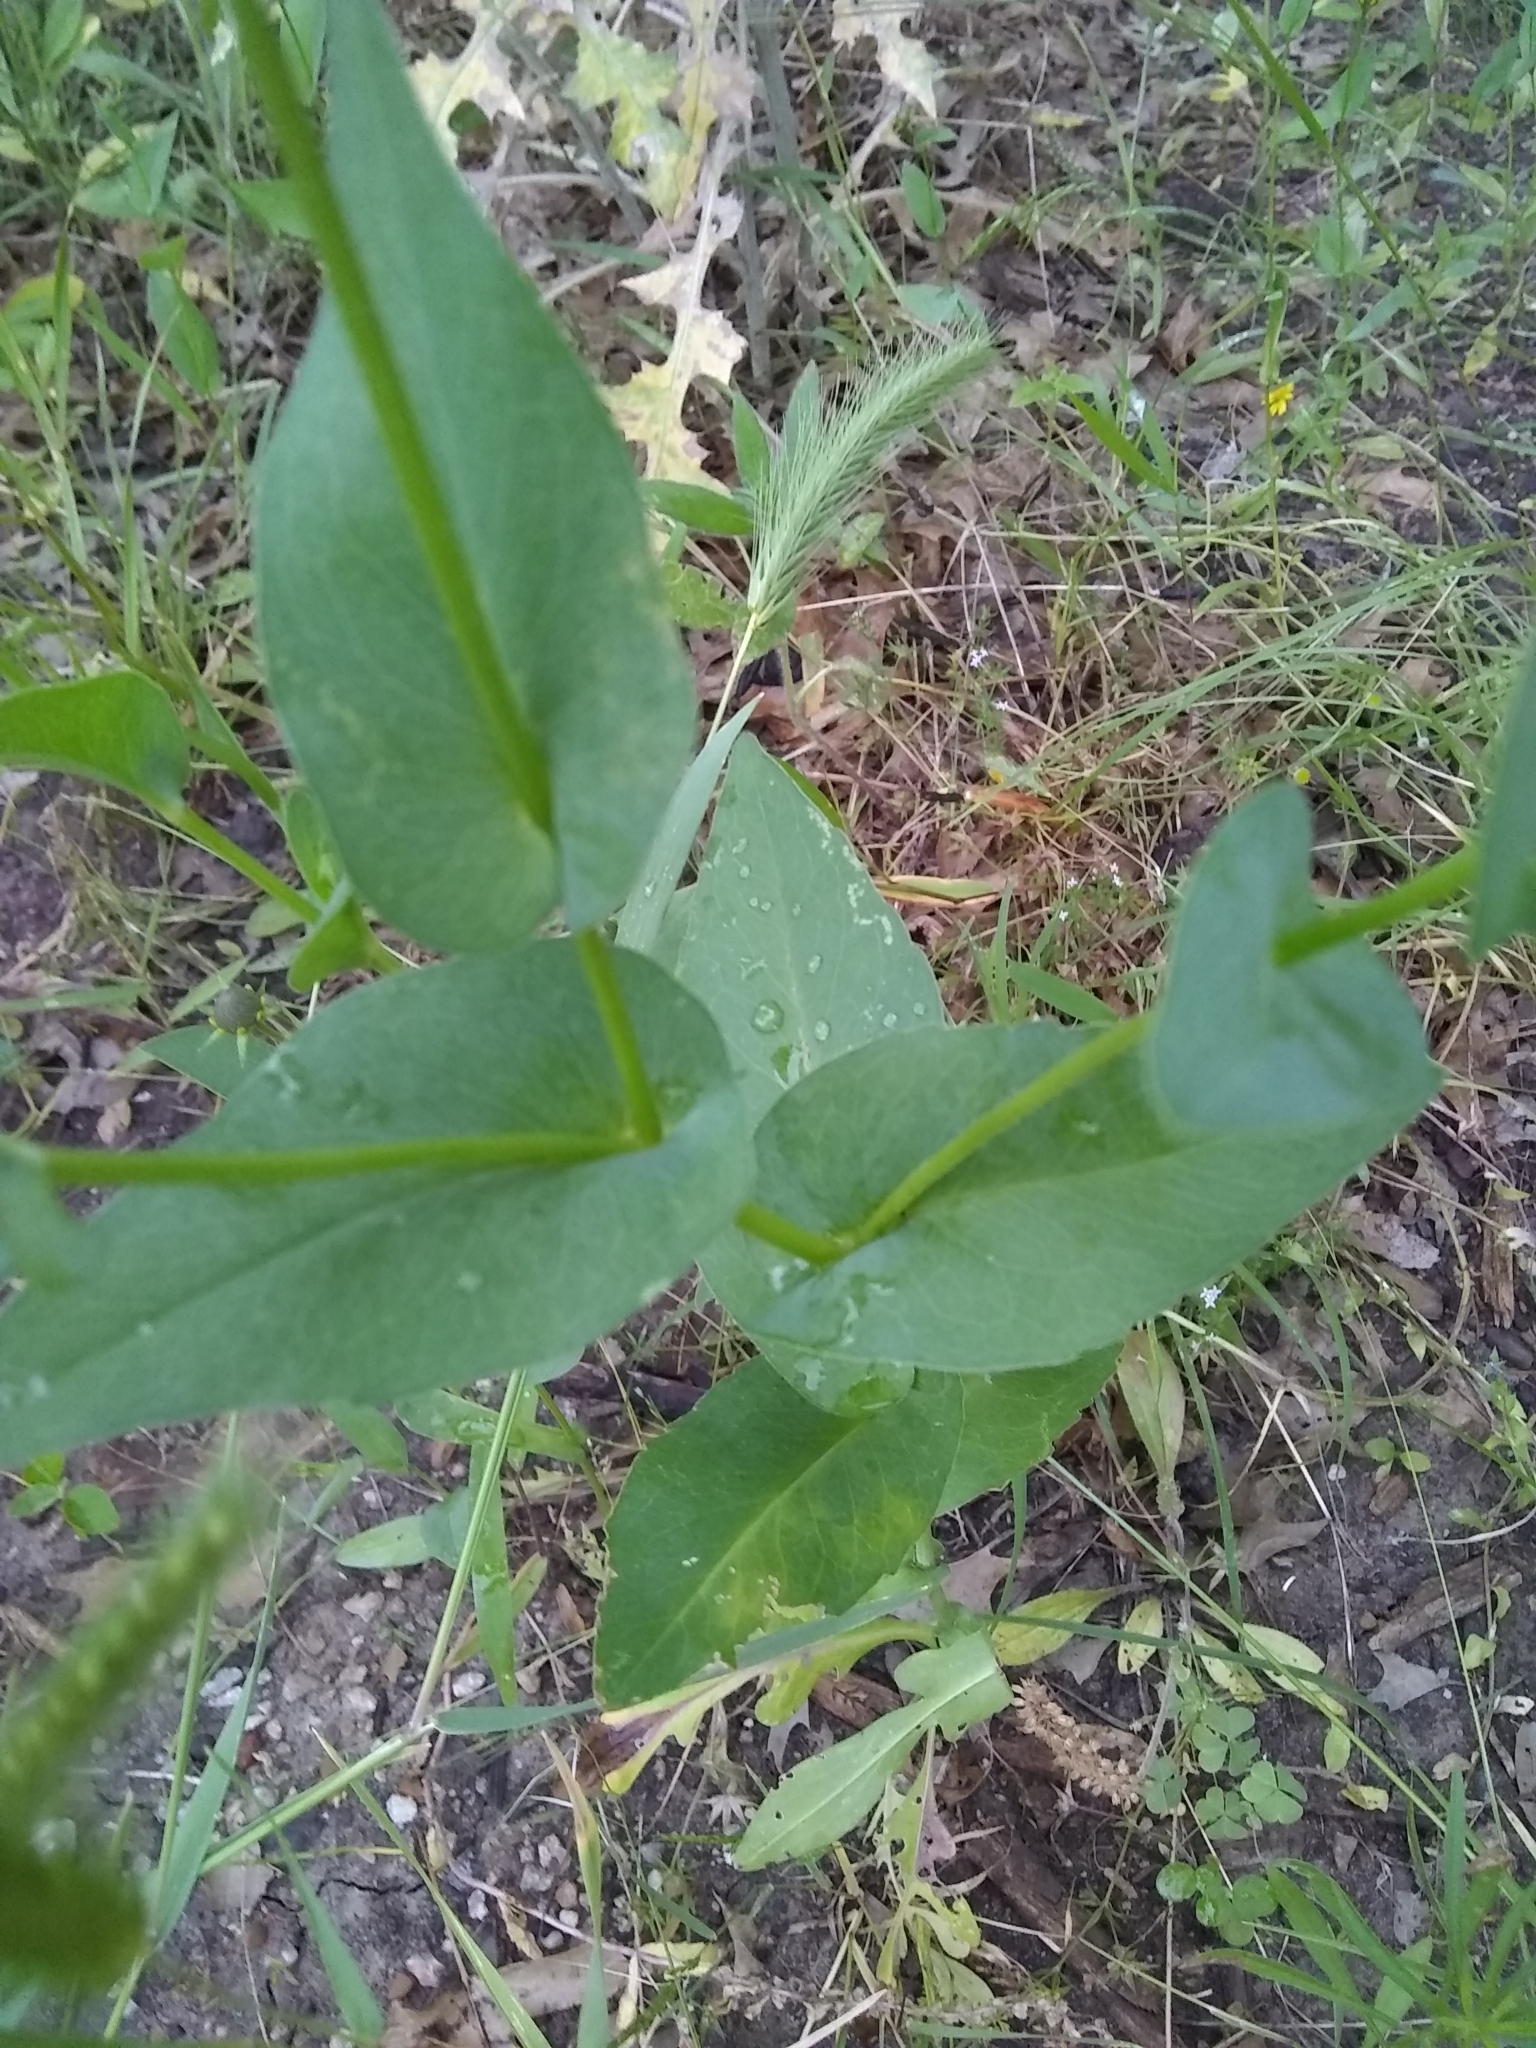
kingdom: Plantae
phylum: Tracheophyta
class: Magnoliopsida
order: Asterales
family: Asteraceae
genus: Rudbeckia
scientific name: Rudbeckia amplexicaulis
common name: Clasping-leaf coneflower
